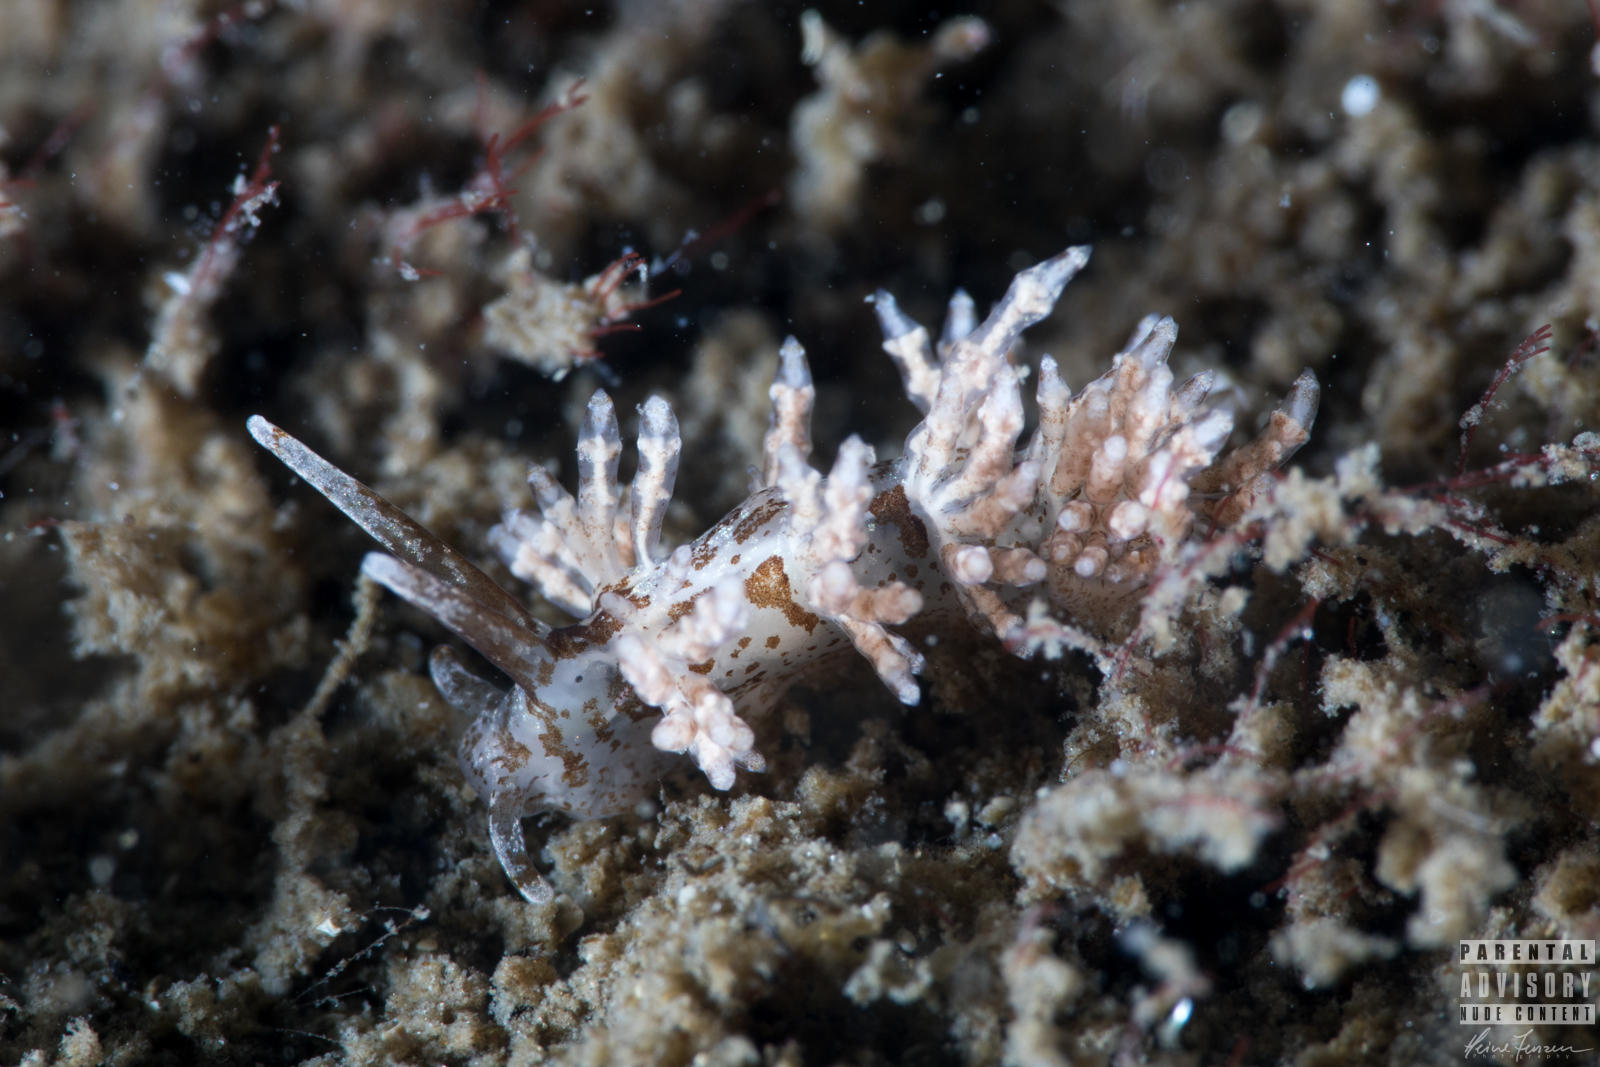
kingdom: Animalia
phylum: Mollusca
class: Gastropoda
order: Nudibranchia
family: Eubranchidae
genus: Capellinia
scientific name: Capellinia fustifera
